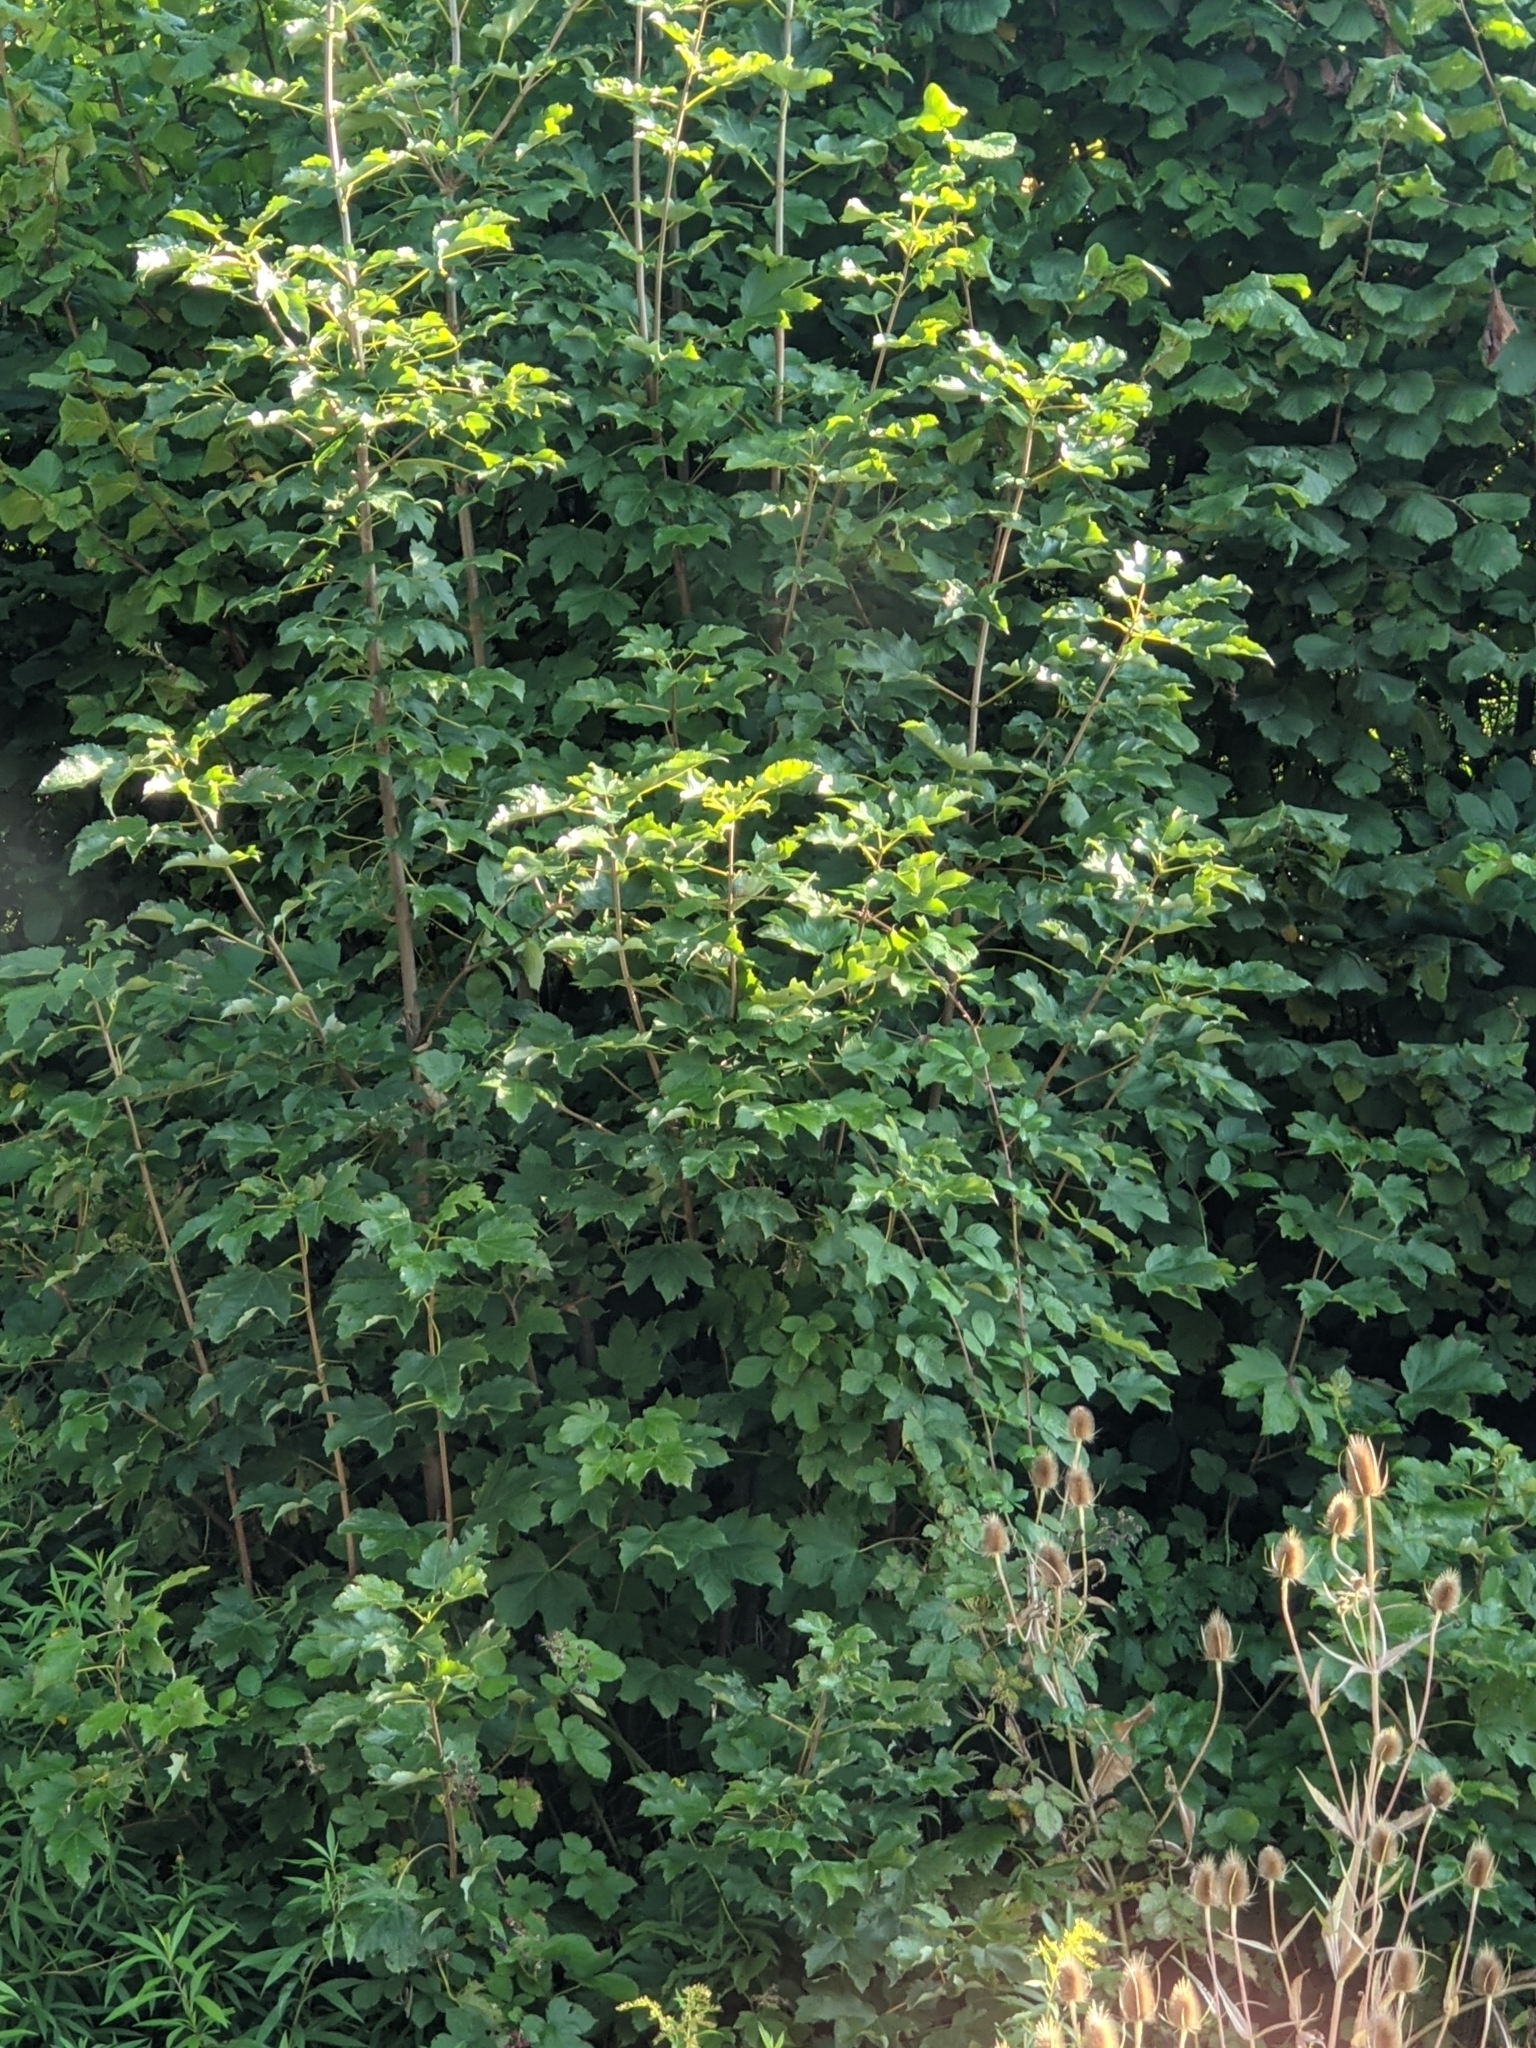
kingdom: Plantae
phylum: Tracheophyta
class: Magnoliopsida
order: Sapindales
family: Sapindaceae
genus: Acer
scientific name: Acer pseudoplatanus
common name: Sycamore
